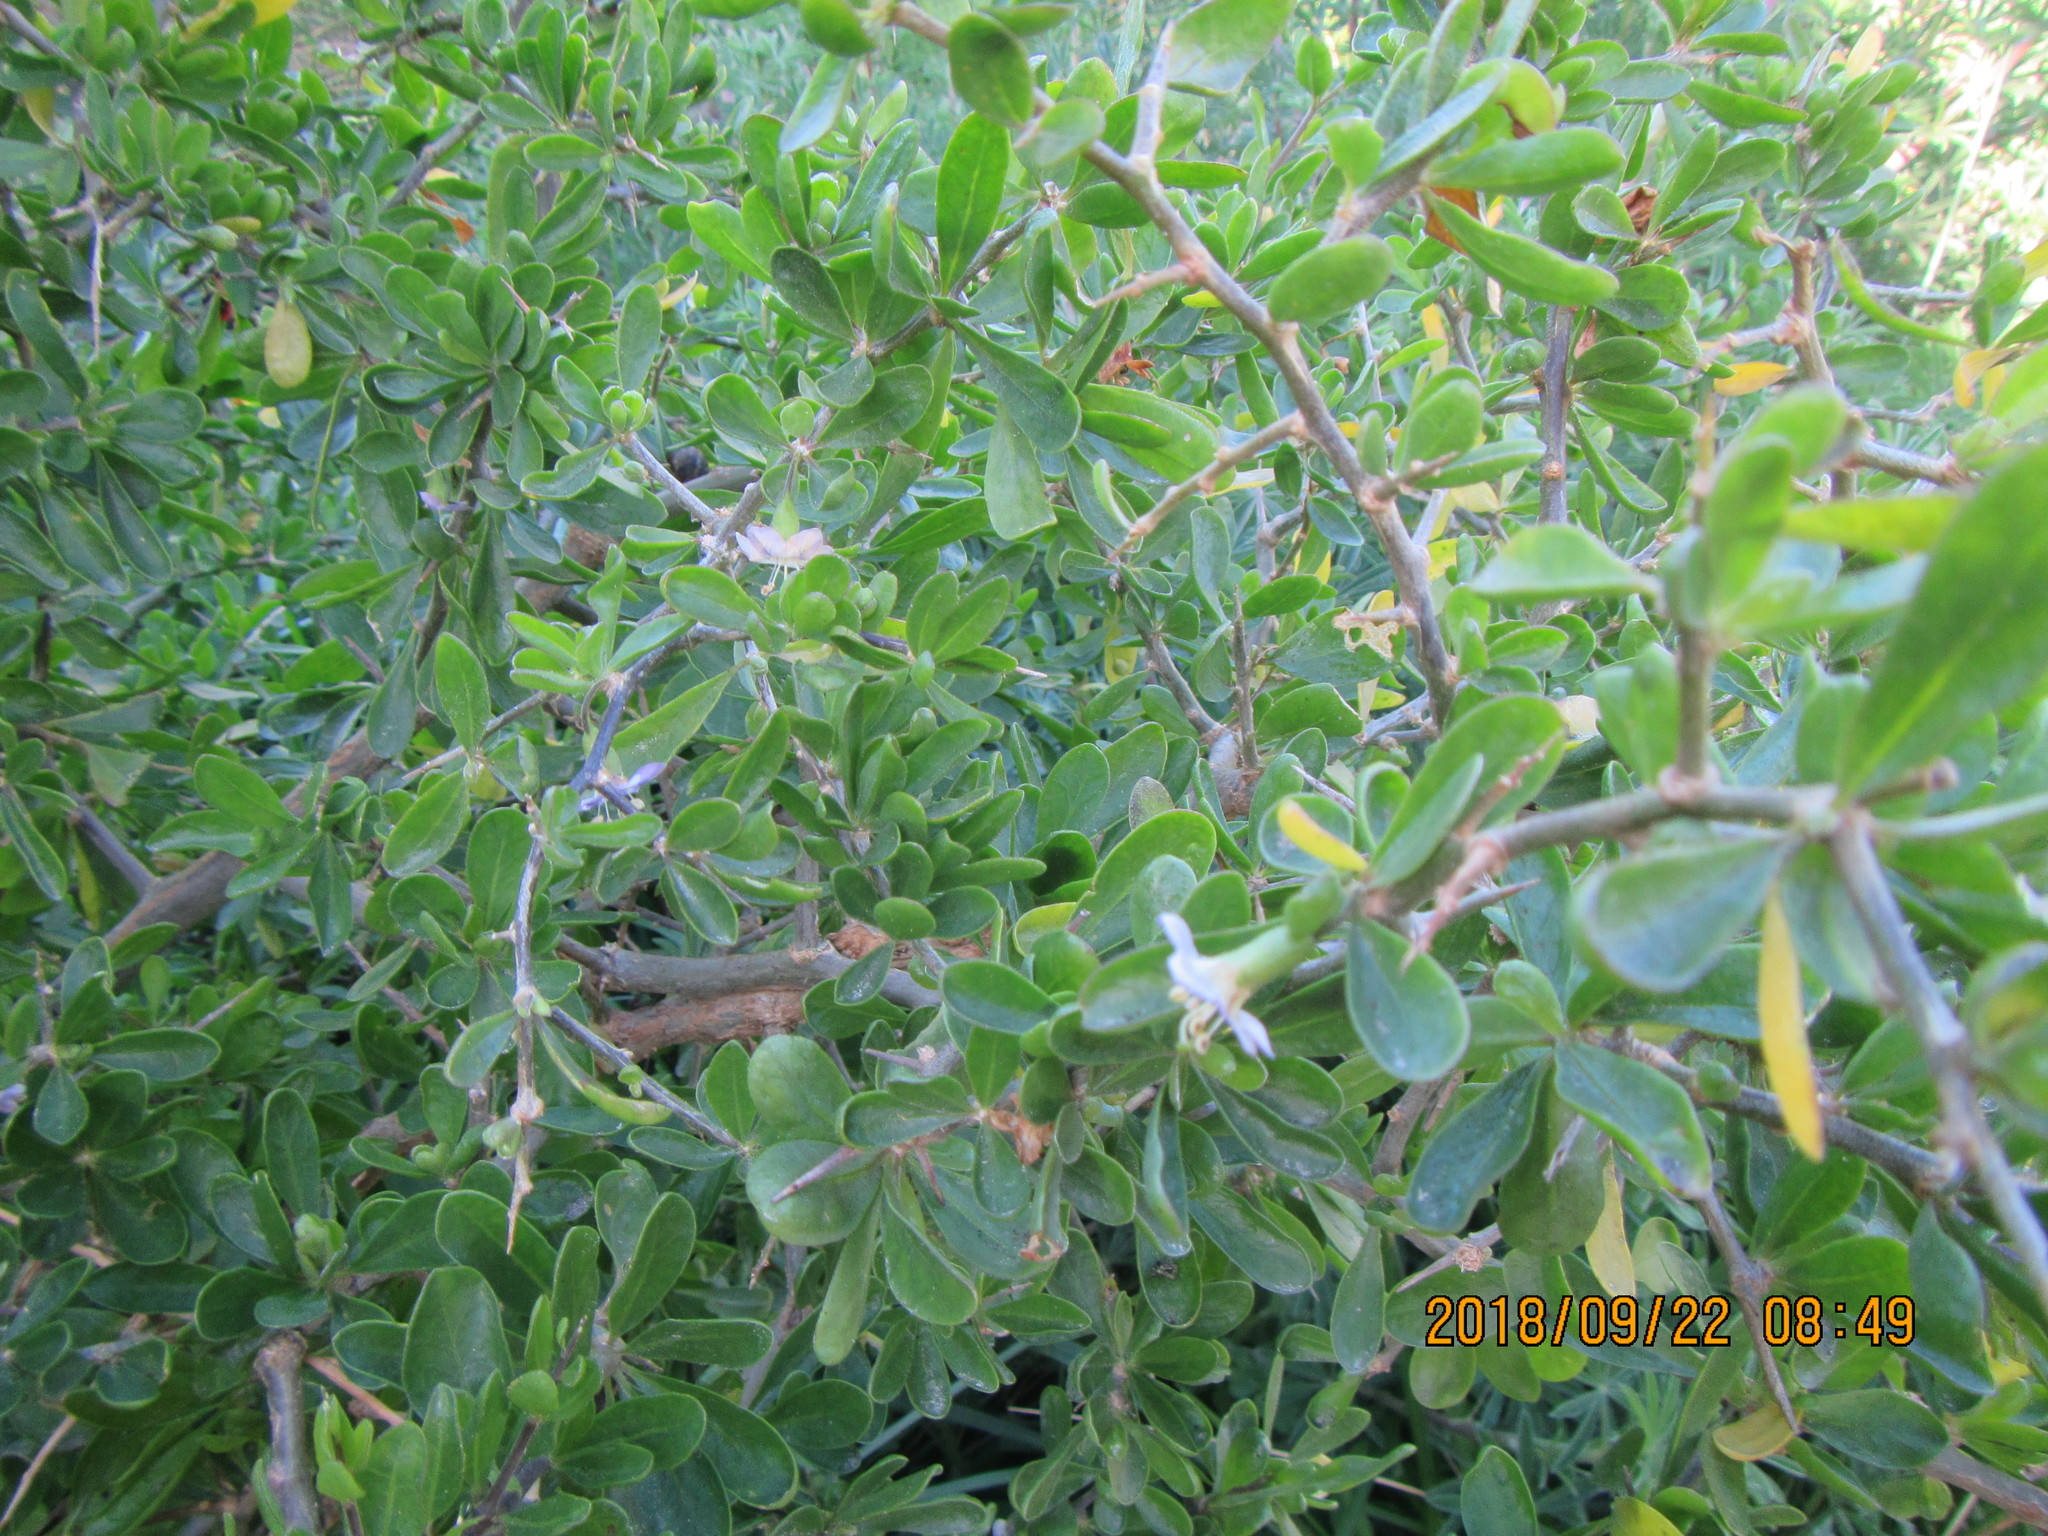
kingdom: Plantae
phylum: Tracheophyta
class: Magnoliopsida
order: Solanales
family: Solanaceae
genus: Lycium
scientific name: Lycium ferocissimum
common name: African boxthorn
